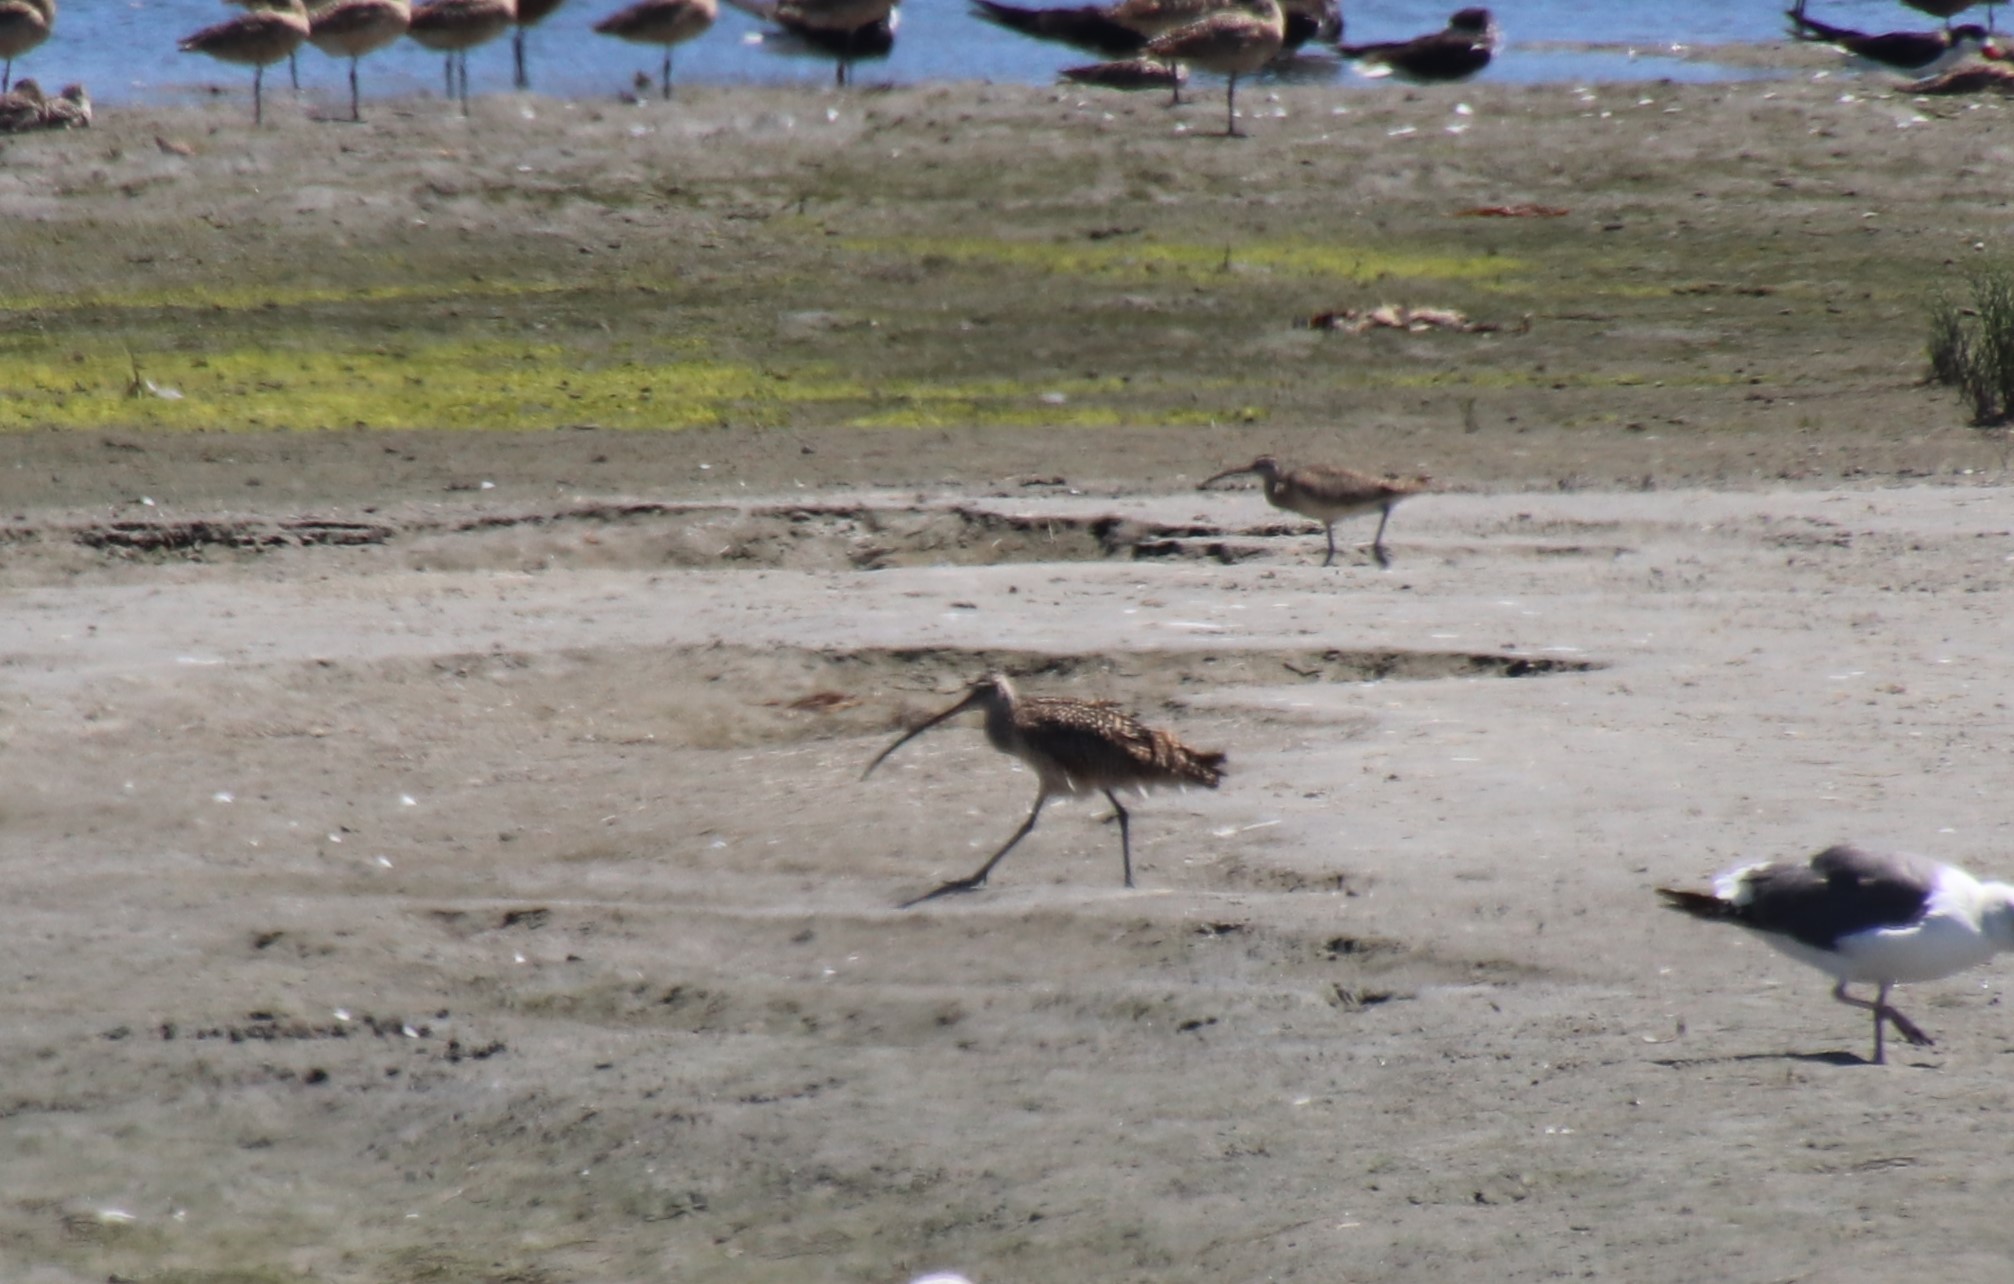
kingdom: Animalia
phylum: Chordata
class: Aves
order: Charadriiformes
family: Scolopacidae
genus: Numenius
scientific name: Numenius americanus
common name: Long-billed curlew
